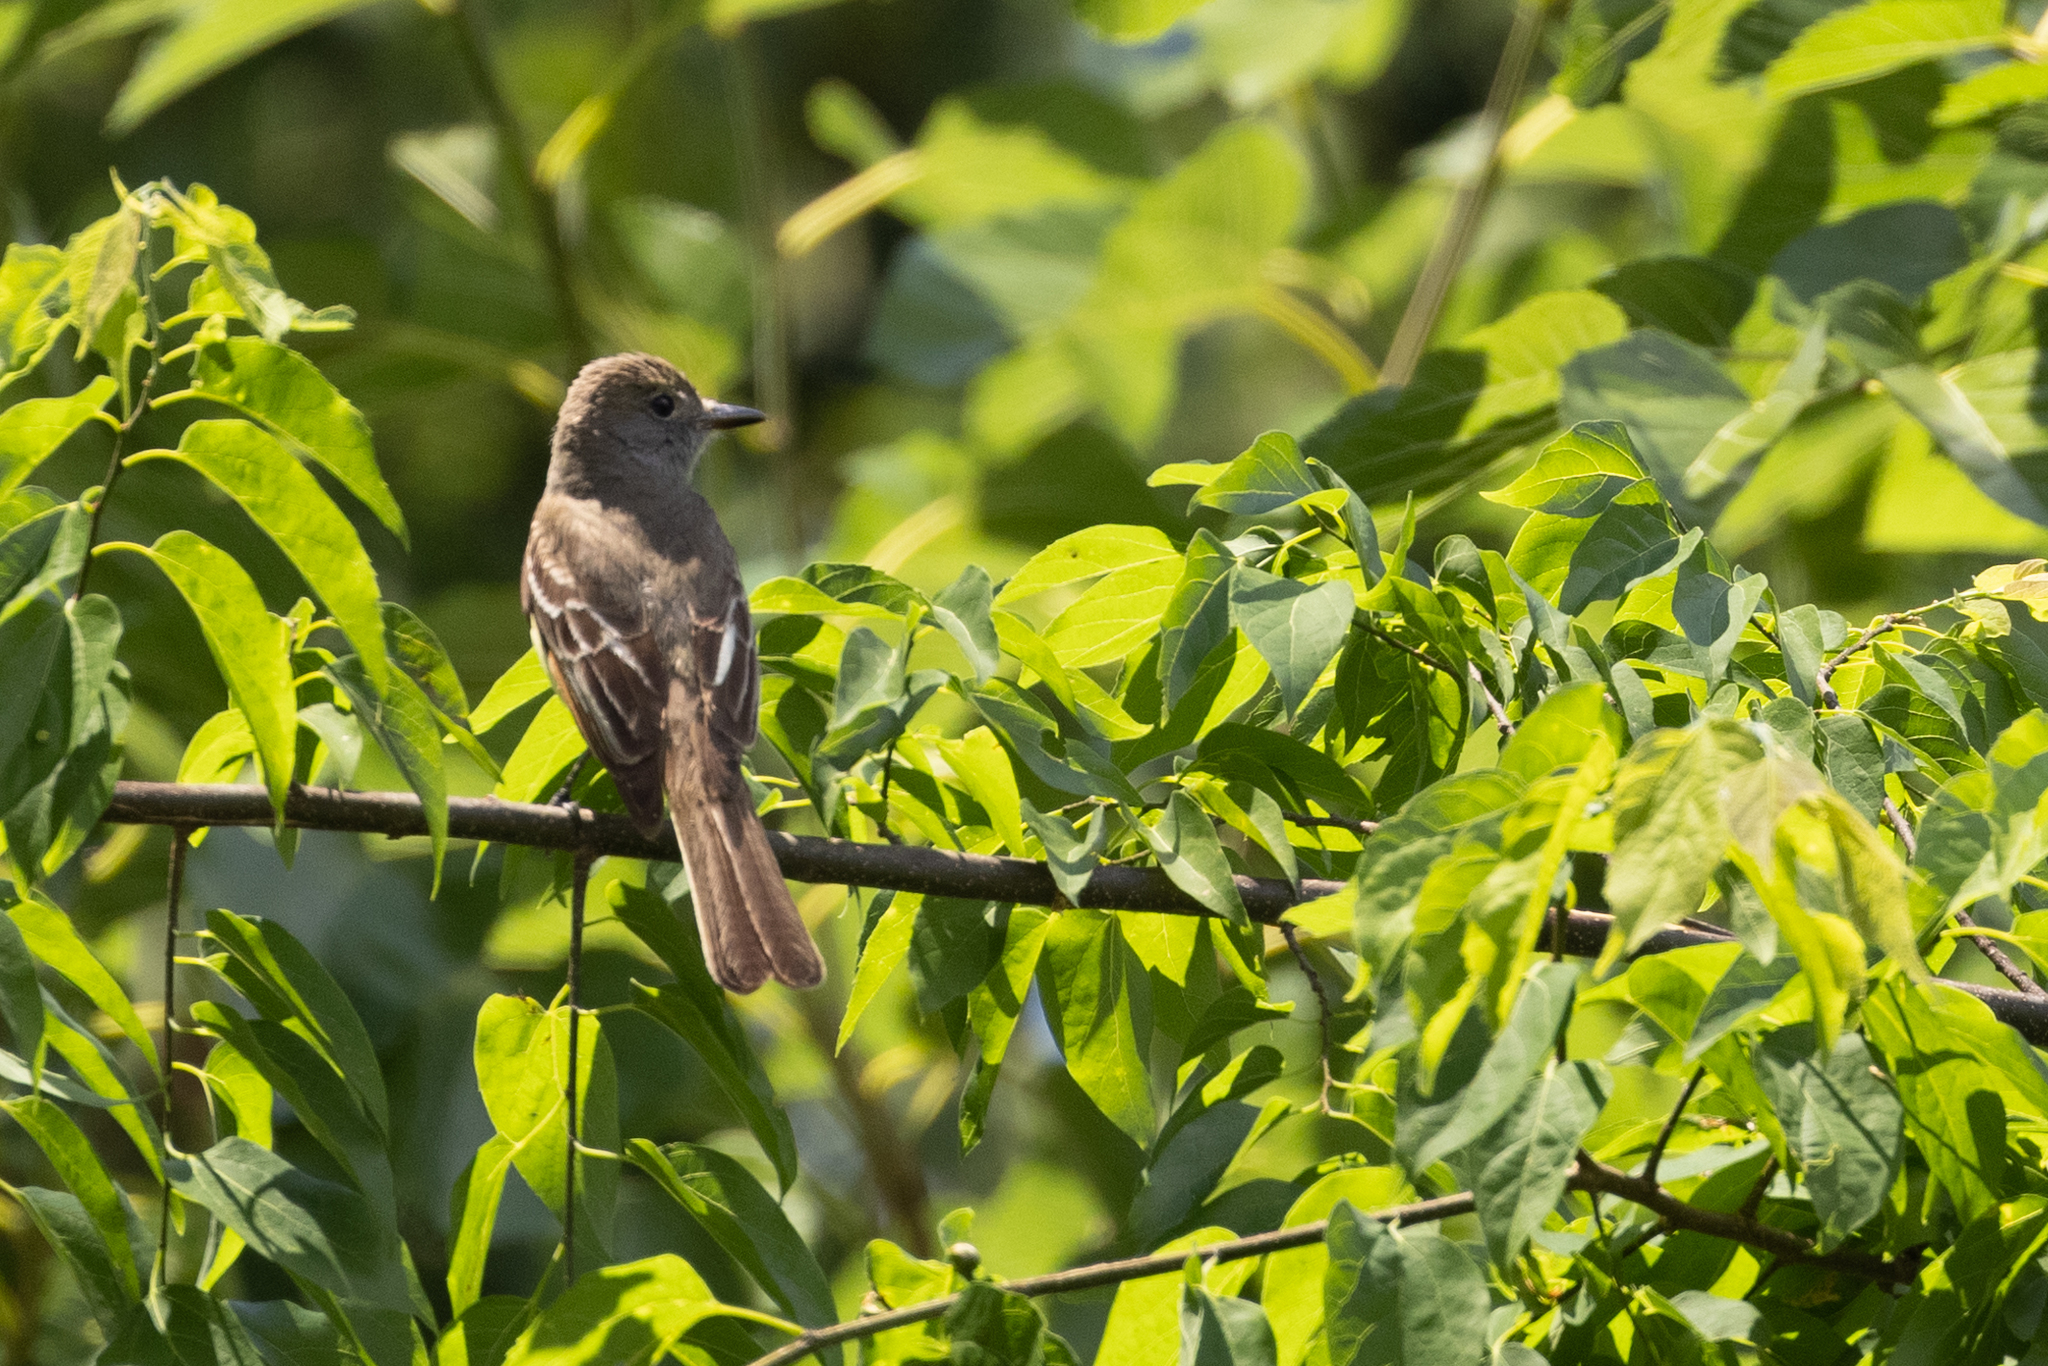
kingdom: Animalia
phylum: Chordata
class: Aves
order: Passeriformes
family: Tyrannidae
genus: Myiarchus
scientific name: Myiarchus crinitus
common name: Great crested flycatcher
